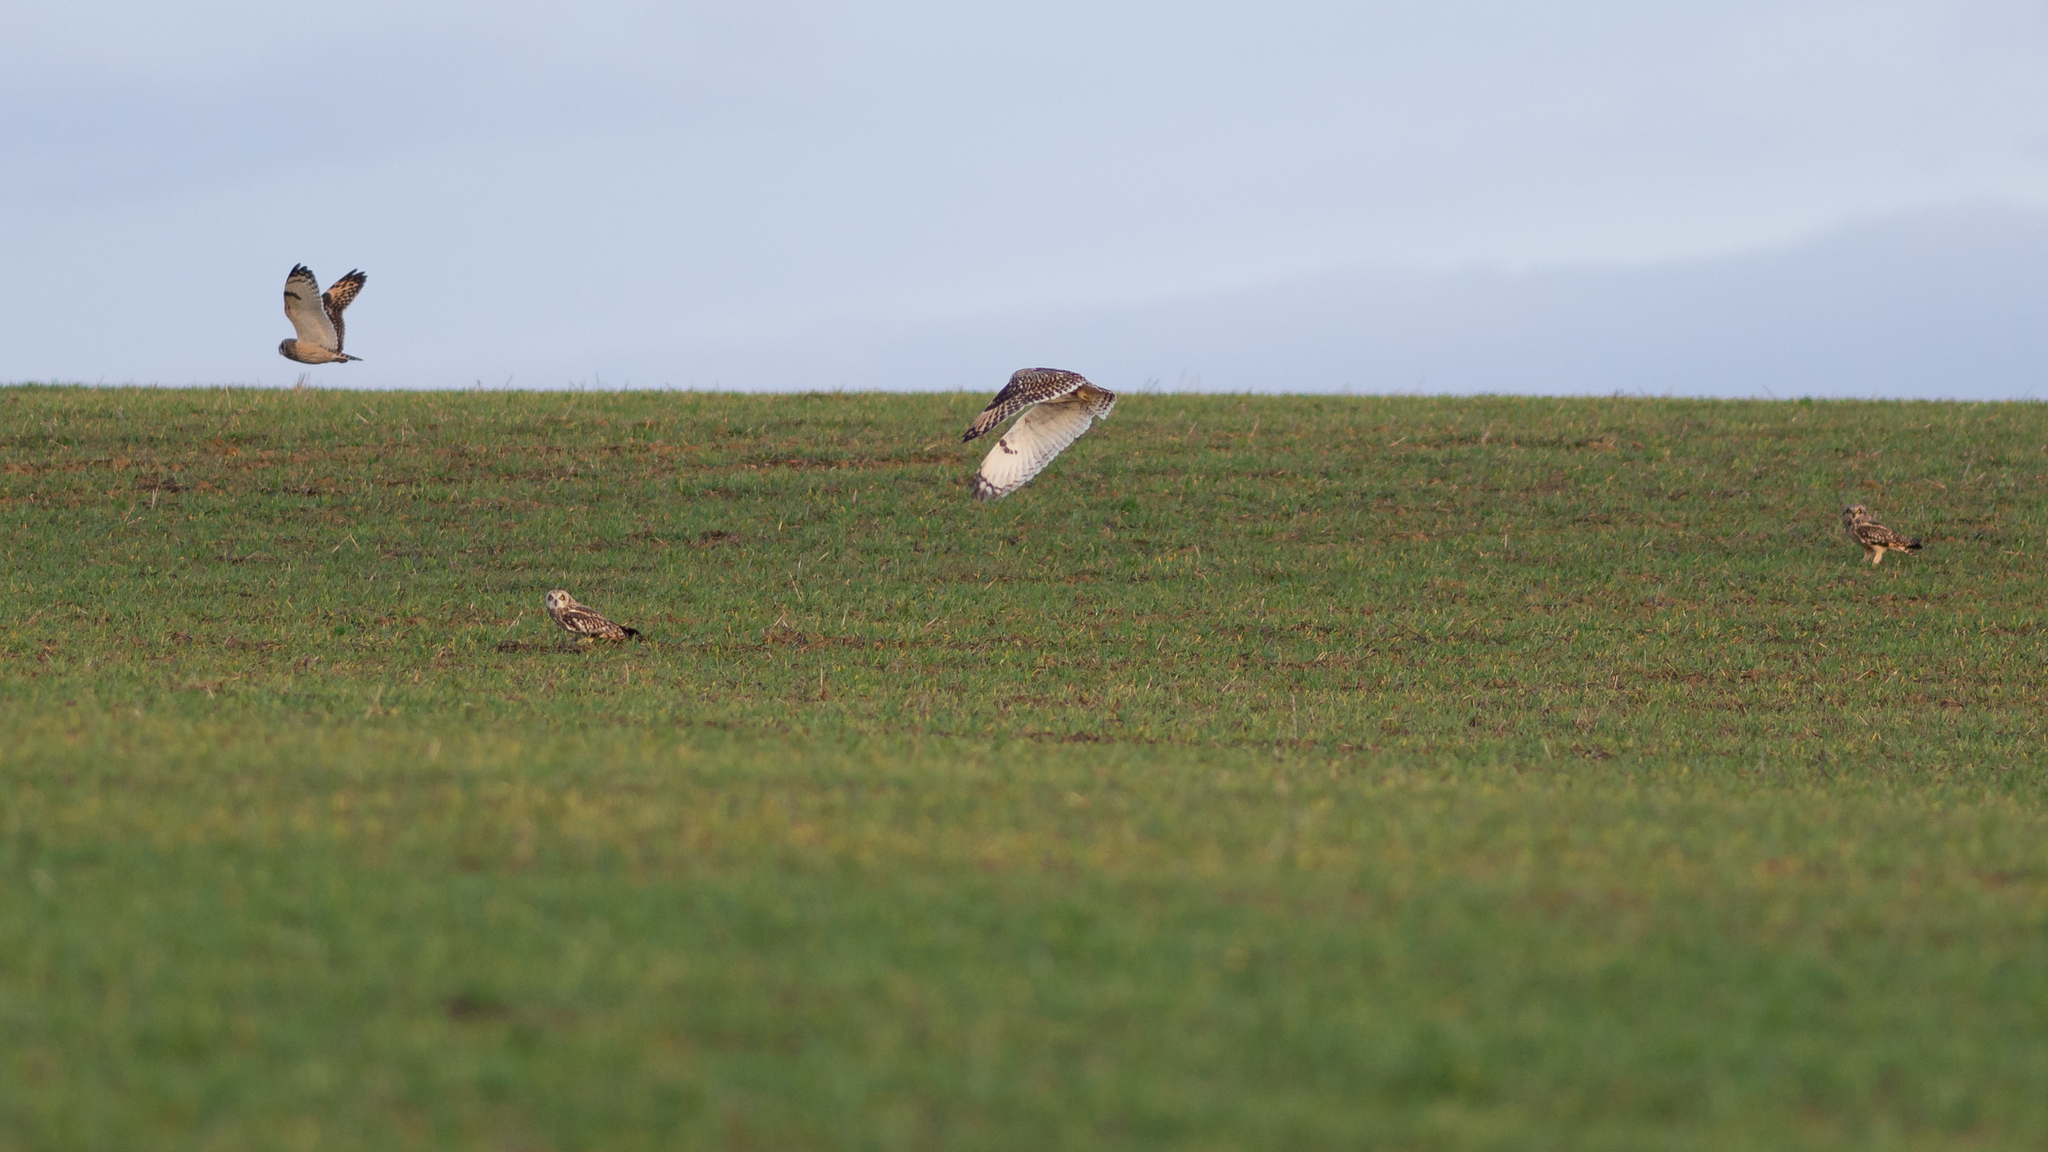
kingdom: Animalia
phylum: Chordata
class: Aves
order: Strigiformes
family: Strigidae
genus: Asio
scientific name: Asio flammeus
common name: Short-eared owl
